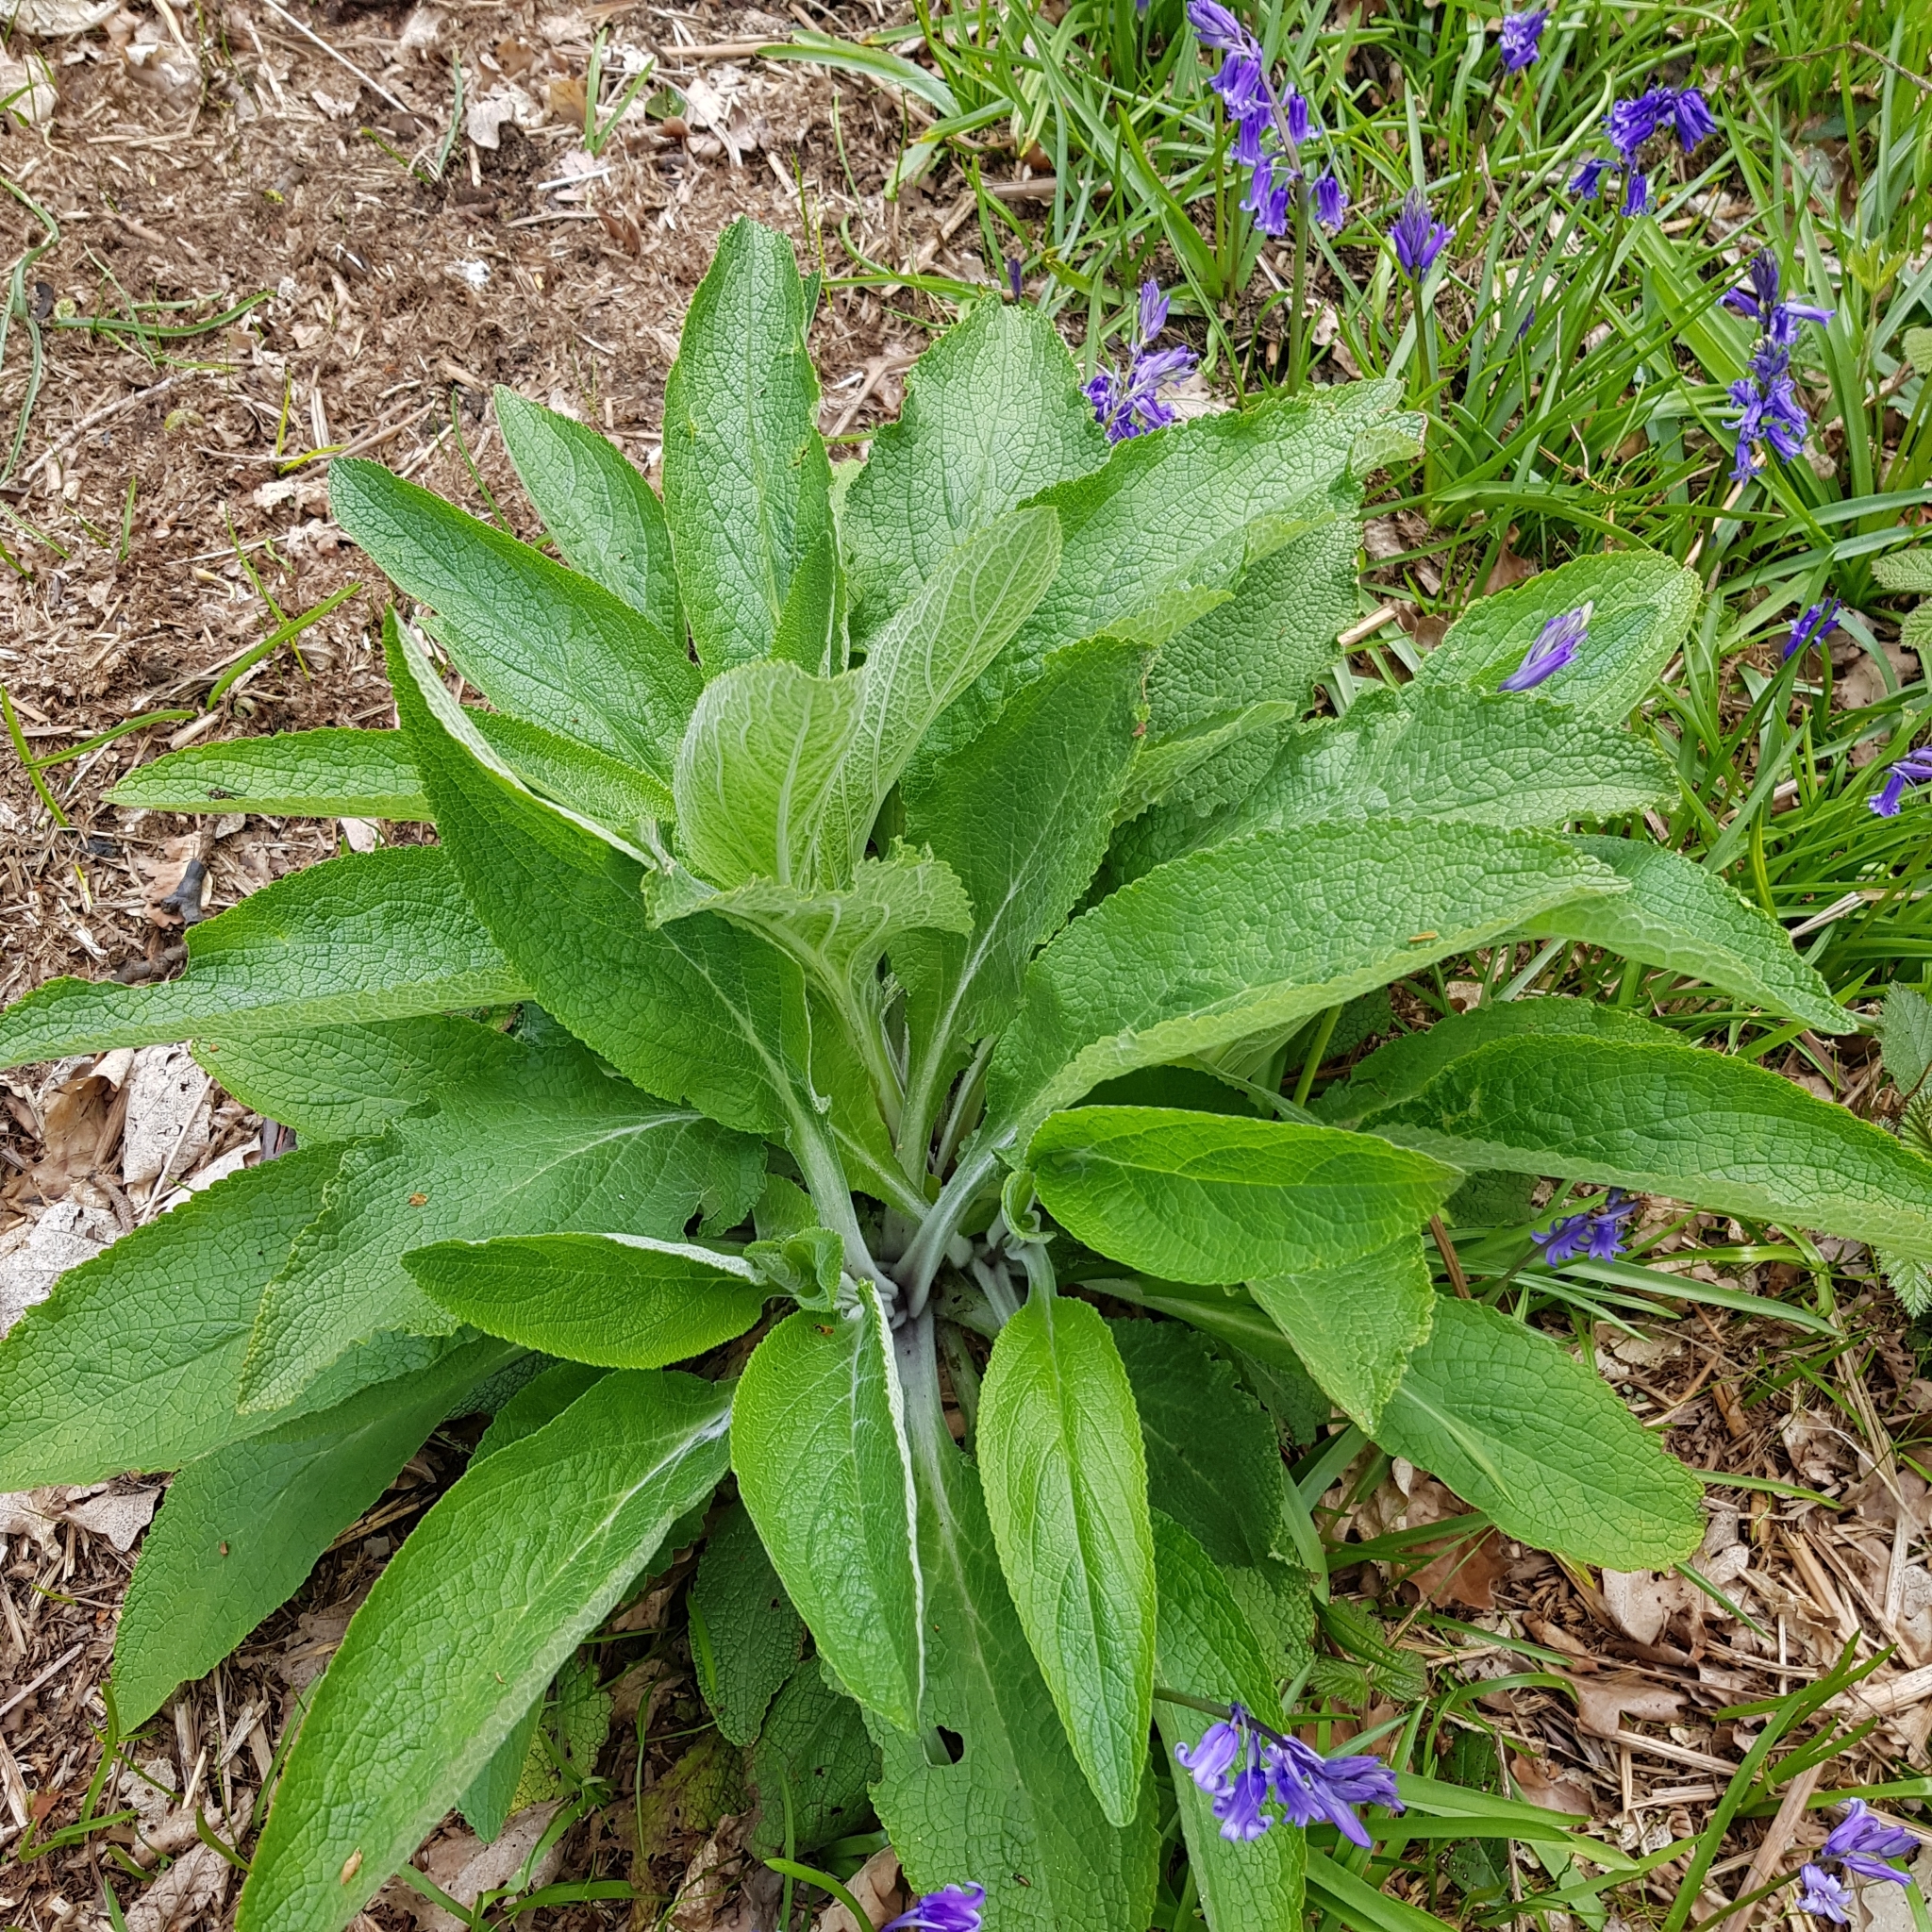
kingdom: Plantae
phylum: Tracheophyta
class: Magnoliopsida
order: Lamiales
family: Plantaginaceae
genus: Digitalis
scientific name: Digitalis purpurea
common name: Foxglove
